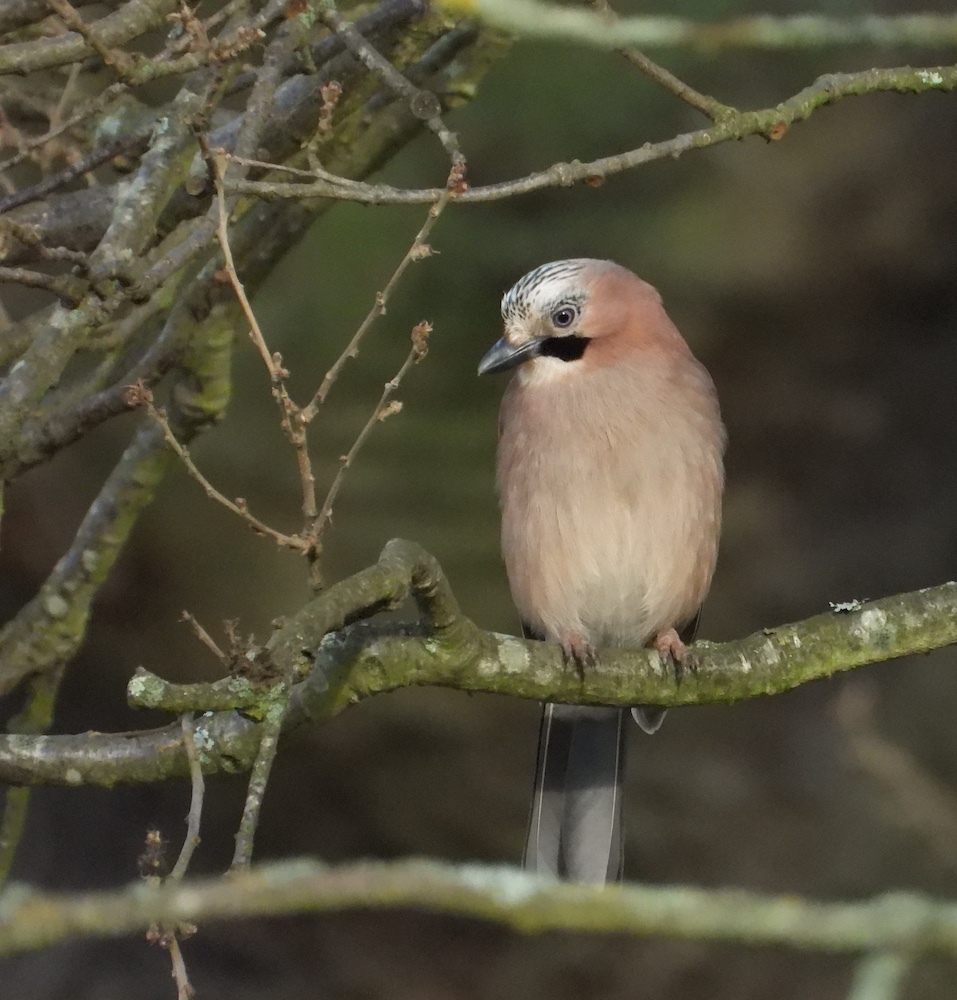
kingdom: Animalia
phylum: Chordata
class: Aves
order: Passeriformes
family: Corvidae
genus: Garrulus
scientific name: Garrulus glandarius
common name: Eurasian jay
